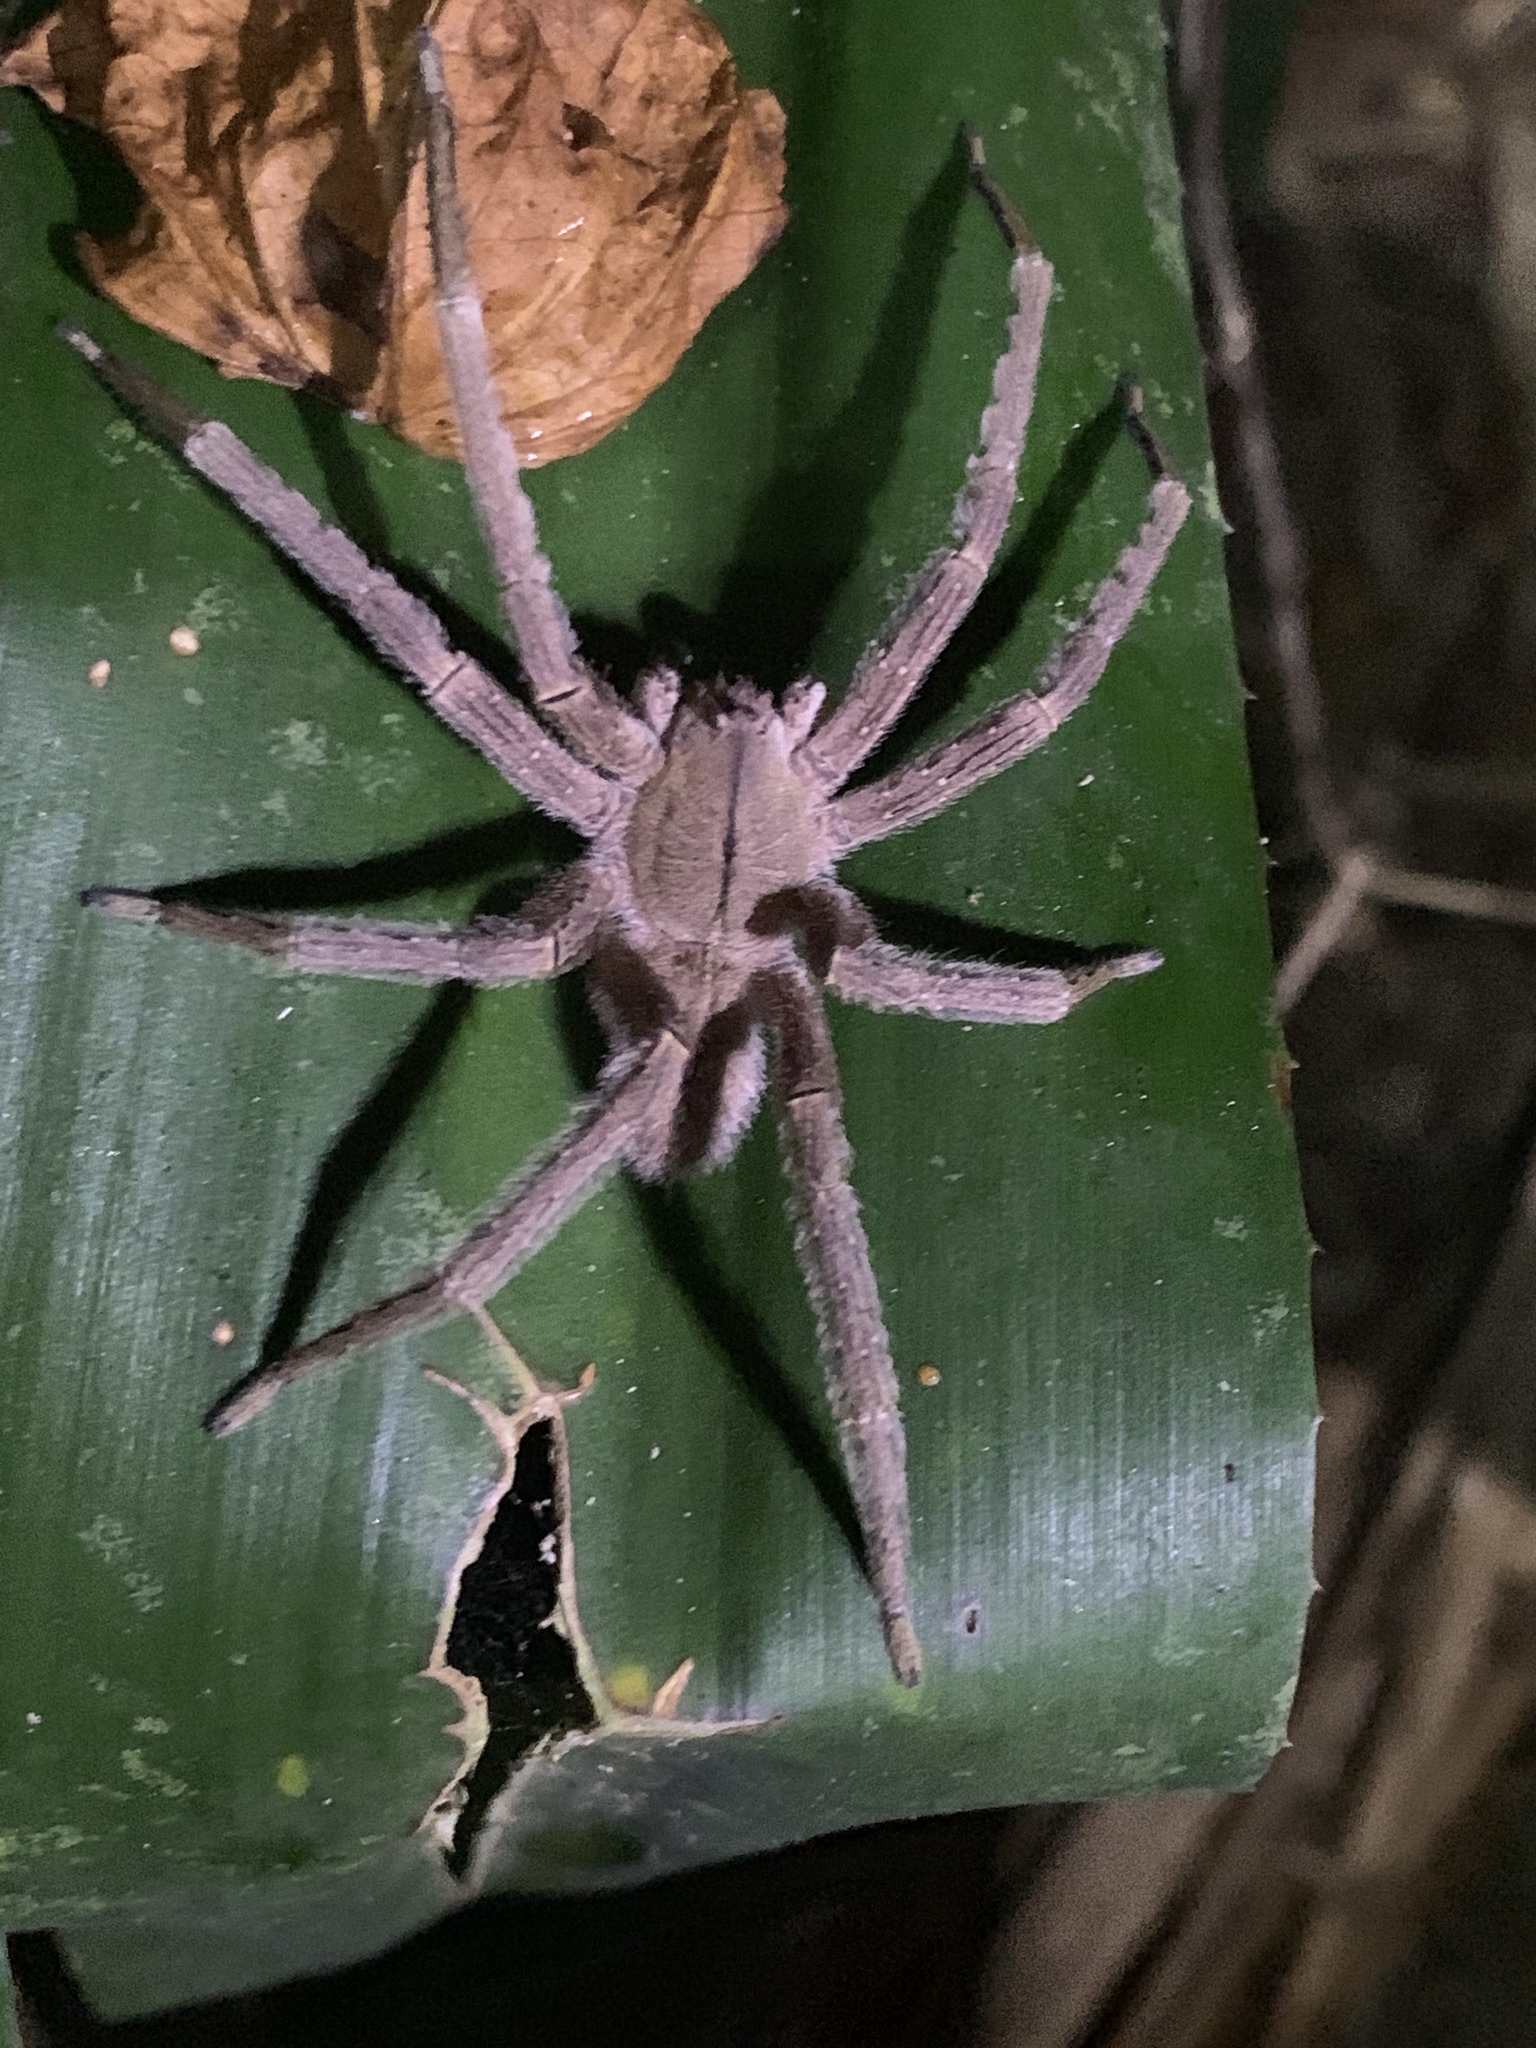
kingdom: Animalia
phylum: Arthropoda
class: Arachnida
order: Araneae
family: Ctenidae
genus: Phoneutria
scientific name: Phoneutria depilata
